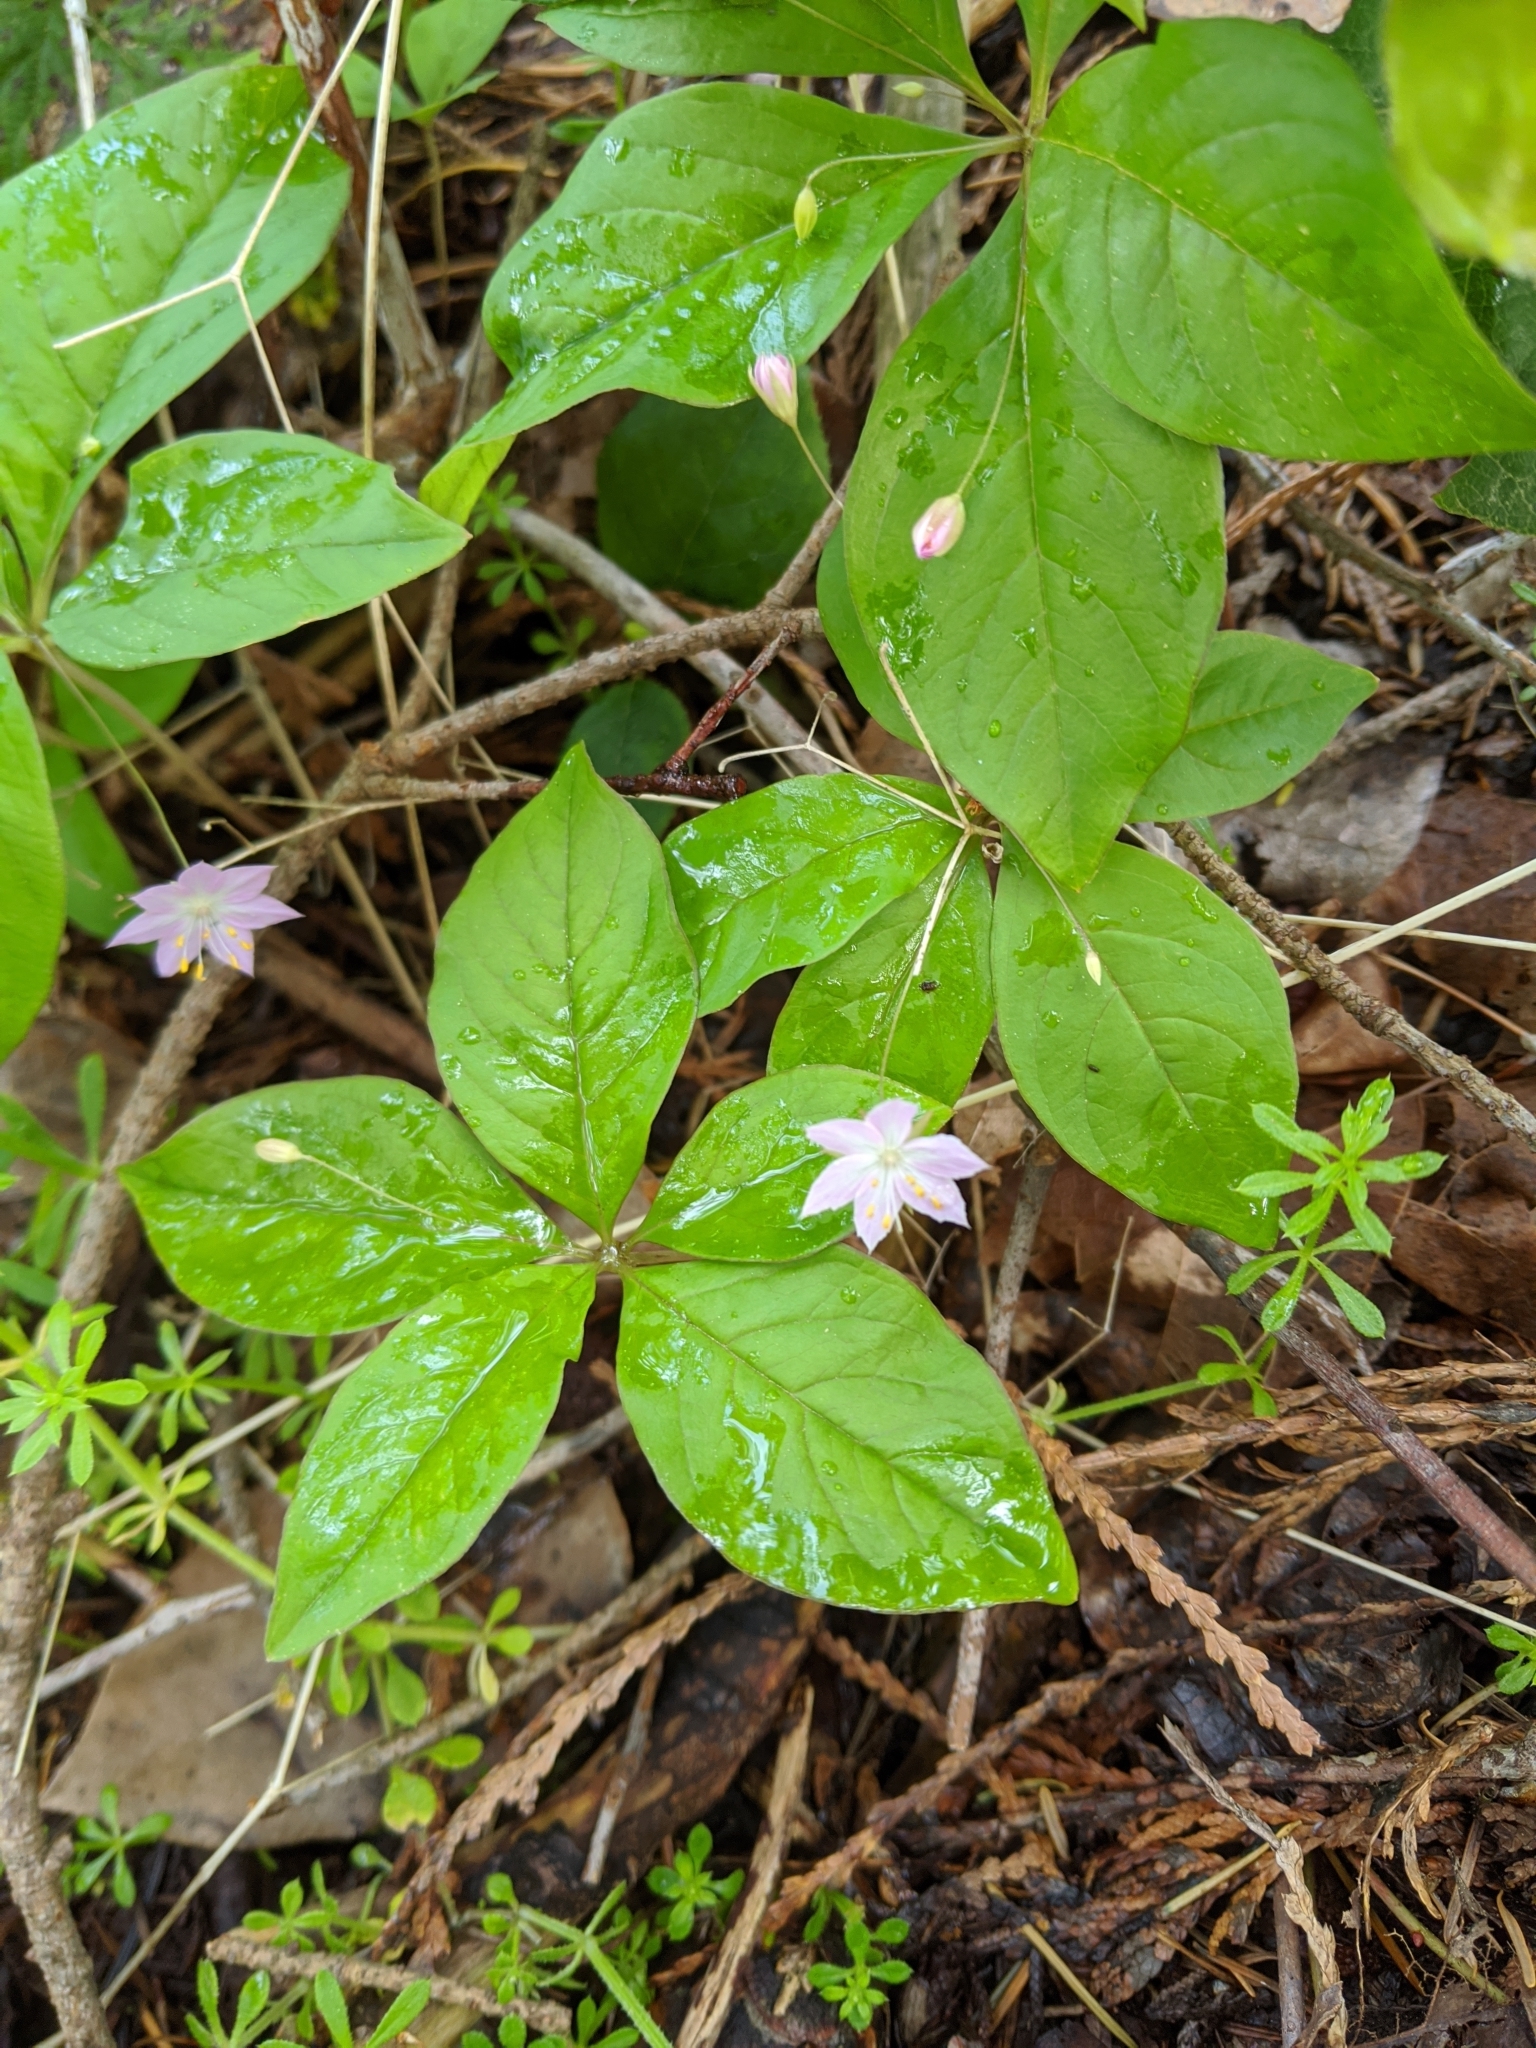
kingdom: Plantae
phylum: Tracheophyta
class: Magnoliopsida
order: Ericales
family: Primulaceae
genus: Lysimachia
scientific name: Lysimachia latifolia
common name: Pacific starflower
